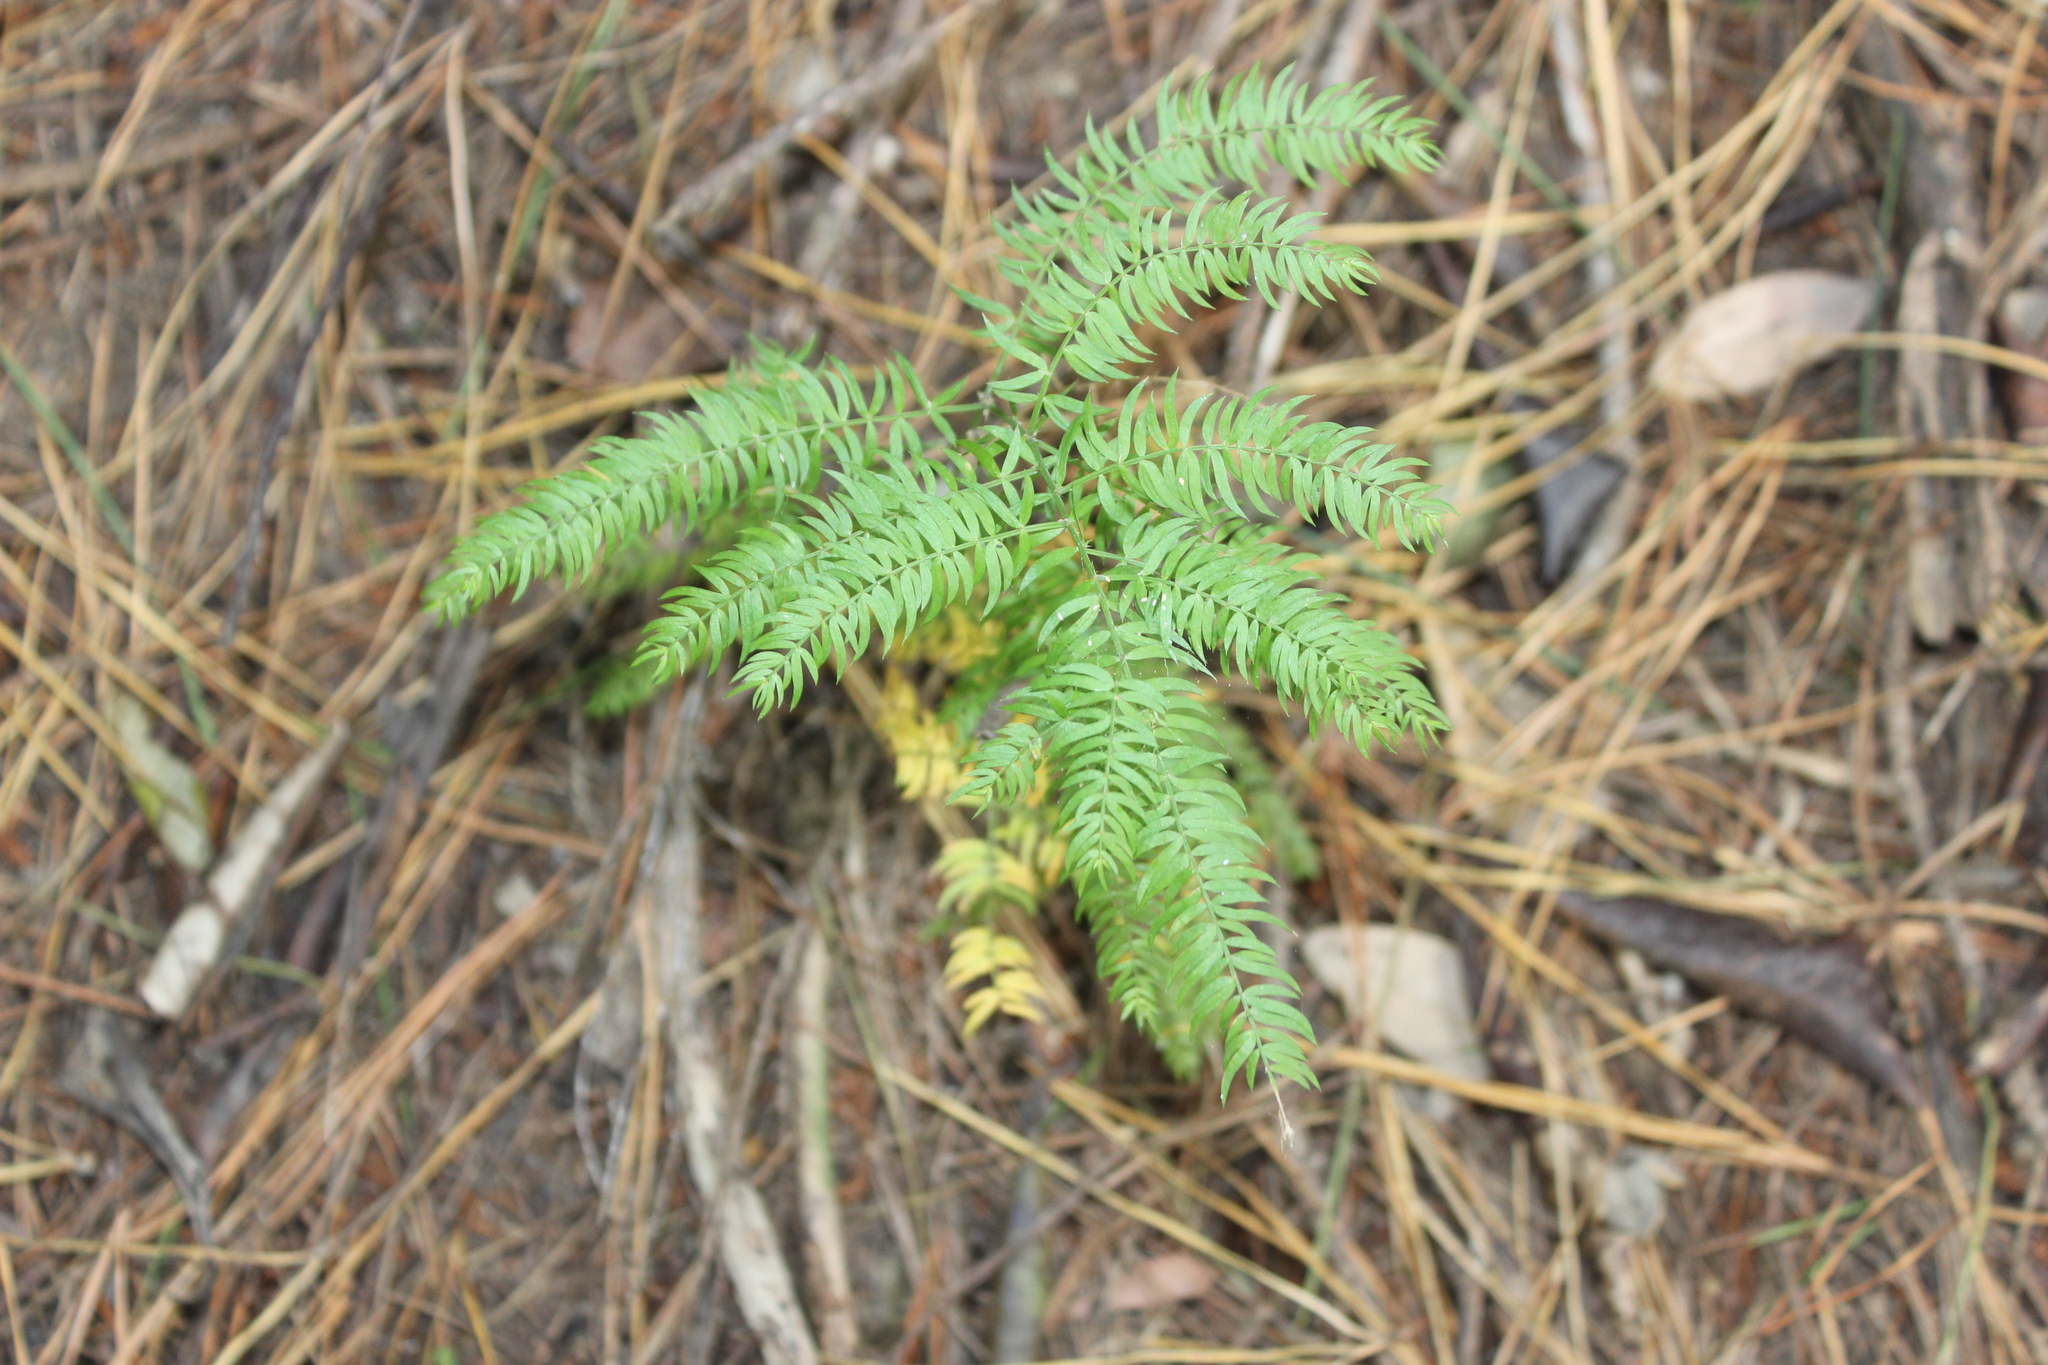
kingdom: Plantae
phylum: Tracheophyta
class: Liliopsida
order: Asparagales
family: Asparagaceae
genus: Asparagus
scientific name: Asparagus scandens
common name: Asparagus-fern
